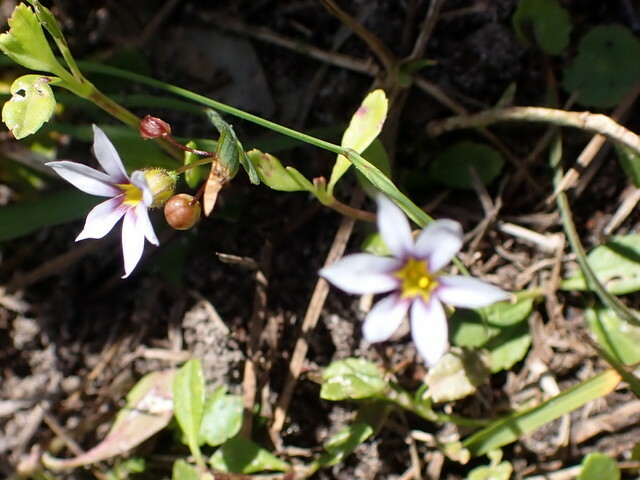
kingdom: Plantae
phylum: Tracheophyta
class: Liliopsida
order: Asparagales
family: Iridaceae
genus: Sisyrinchium
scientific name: Sisyrinchium micranthum
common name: Bermuda pigroot
